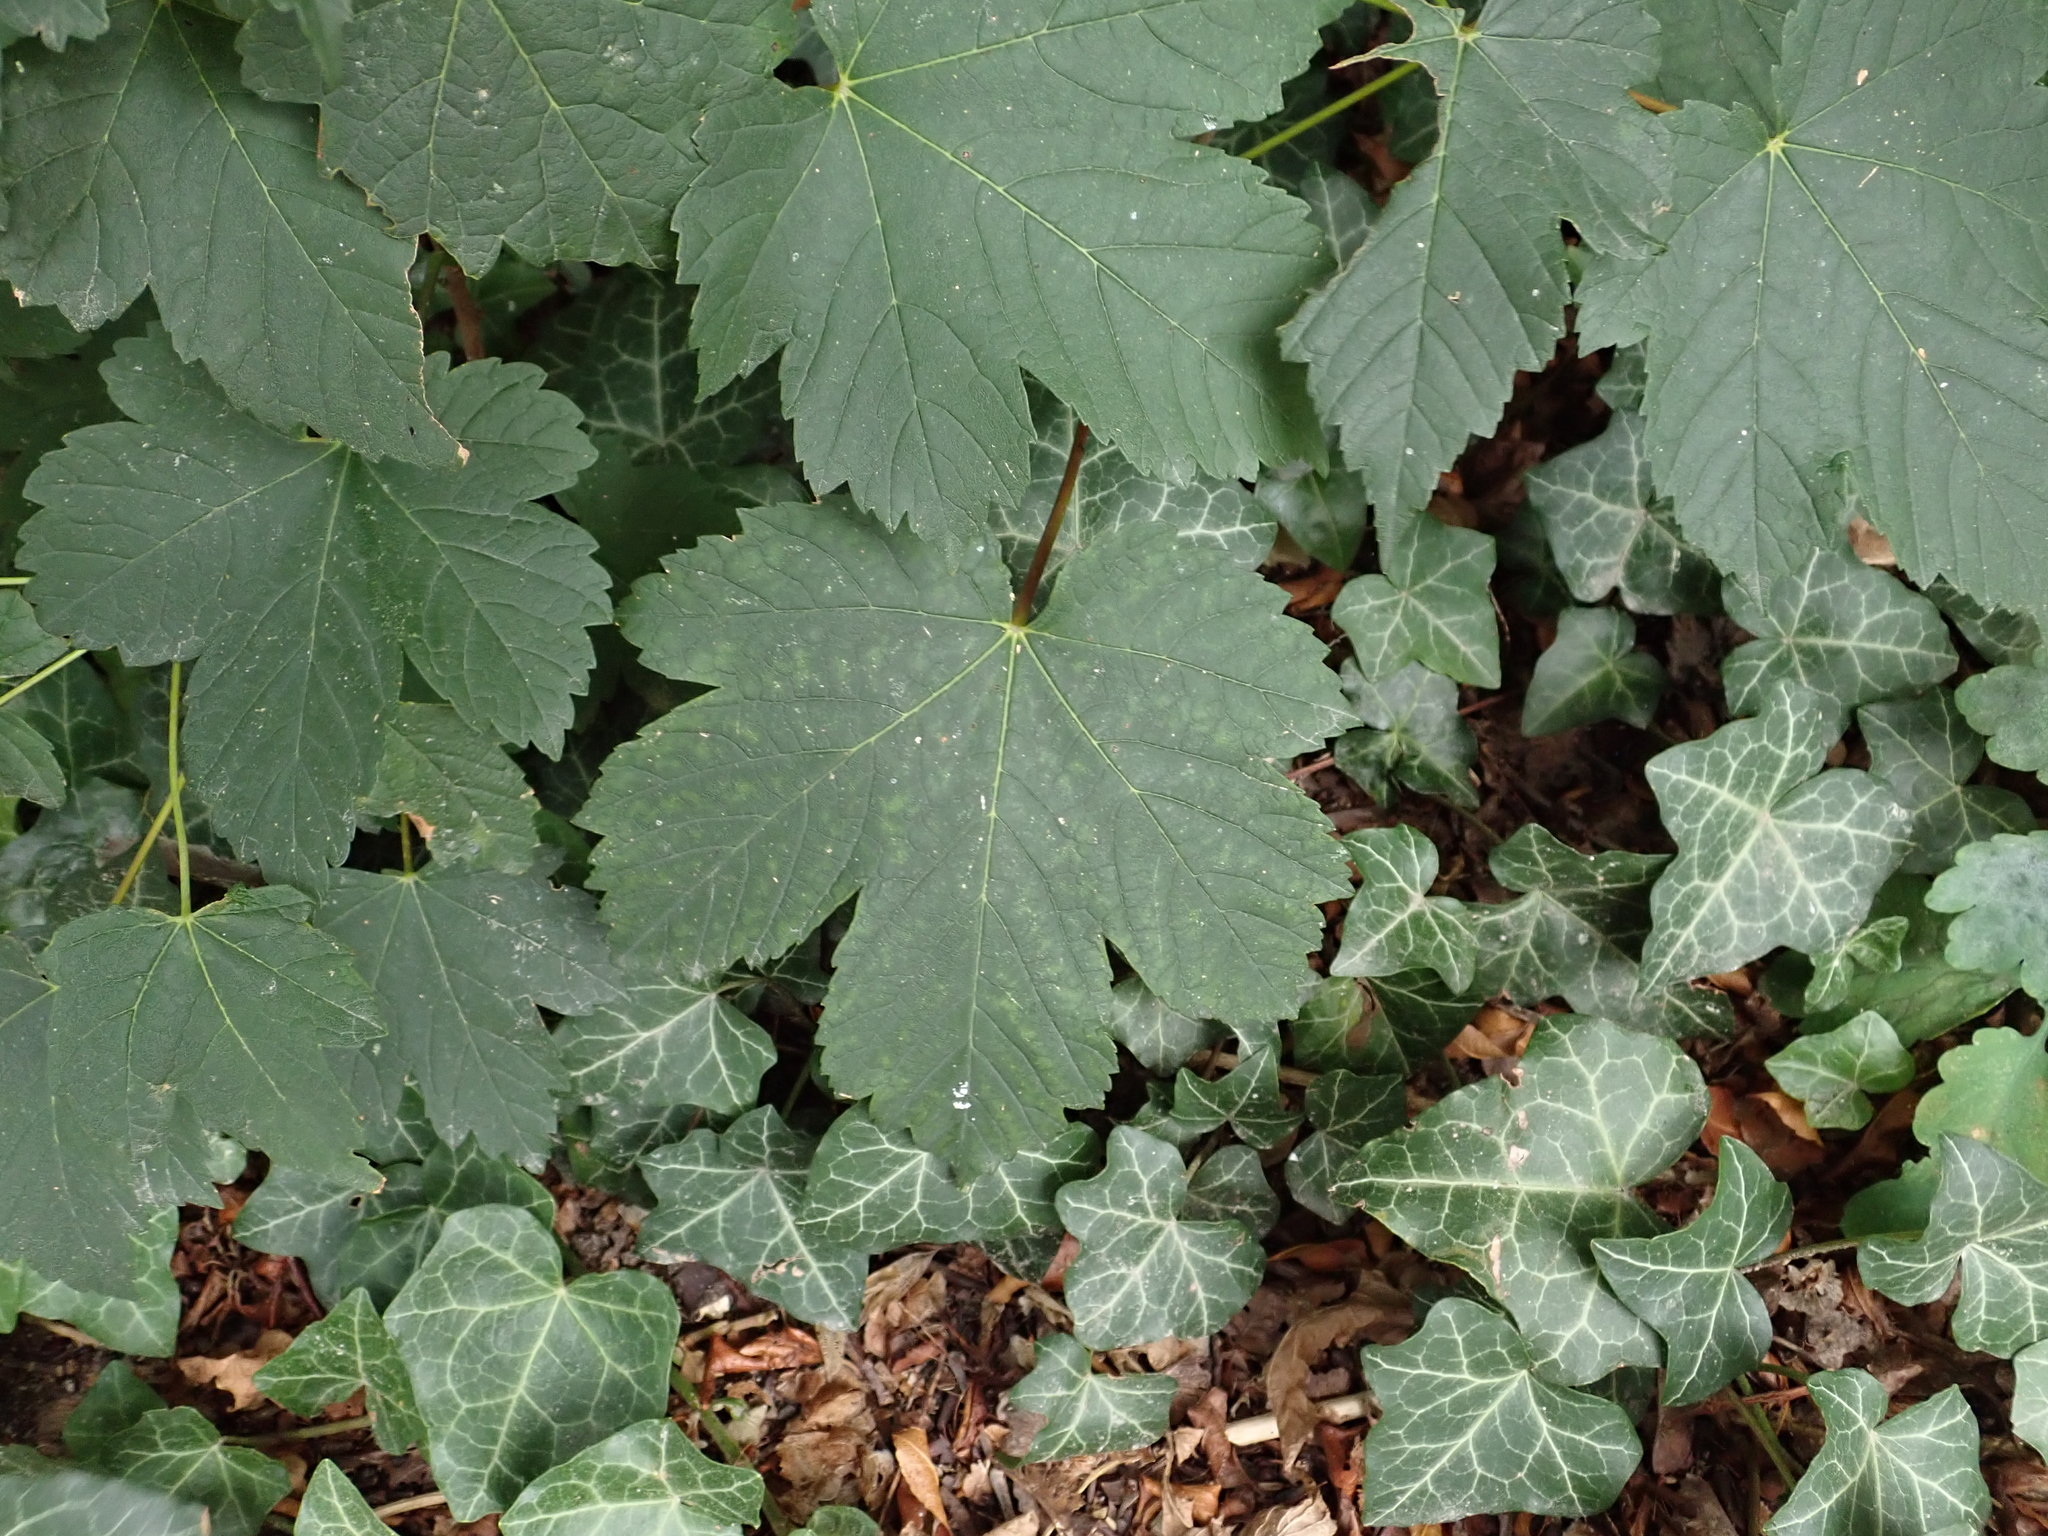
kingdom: Plantae
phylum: Tracheophyta
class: Magnoliopsida
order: Sapindales
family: Sapindaceae
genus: Acer
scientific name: Acer pseudoplatanus
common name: Sycamore
